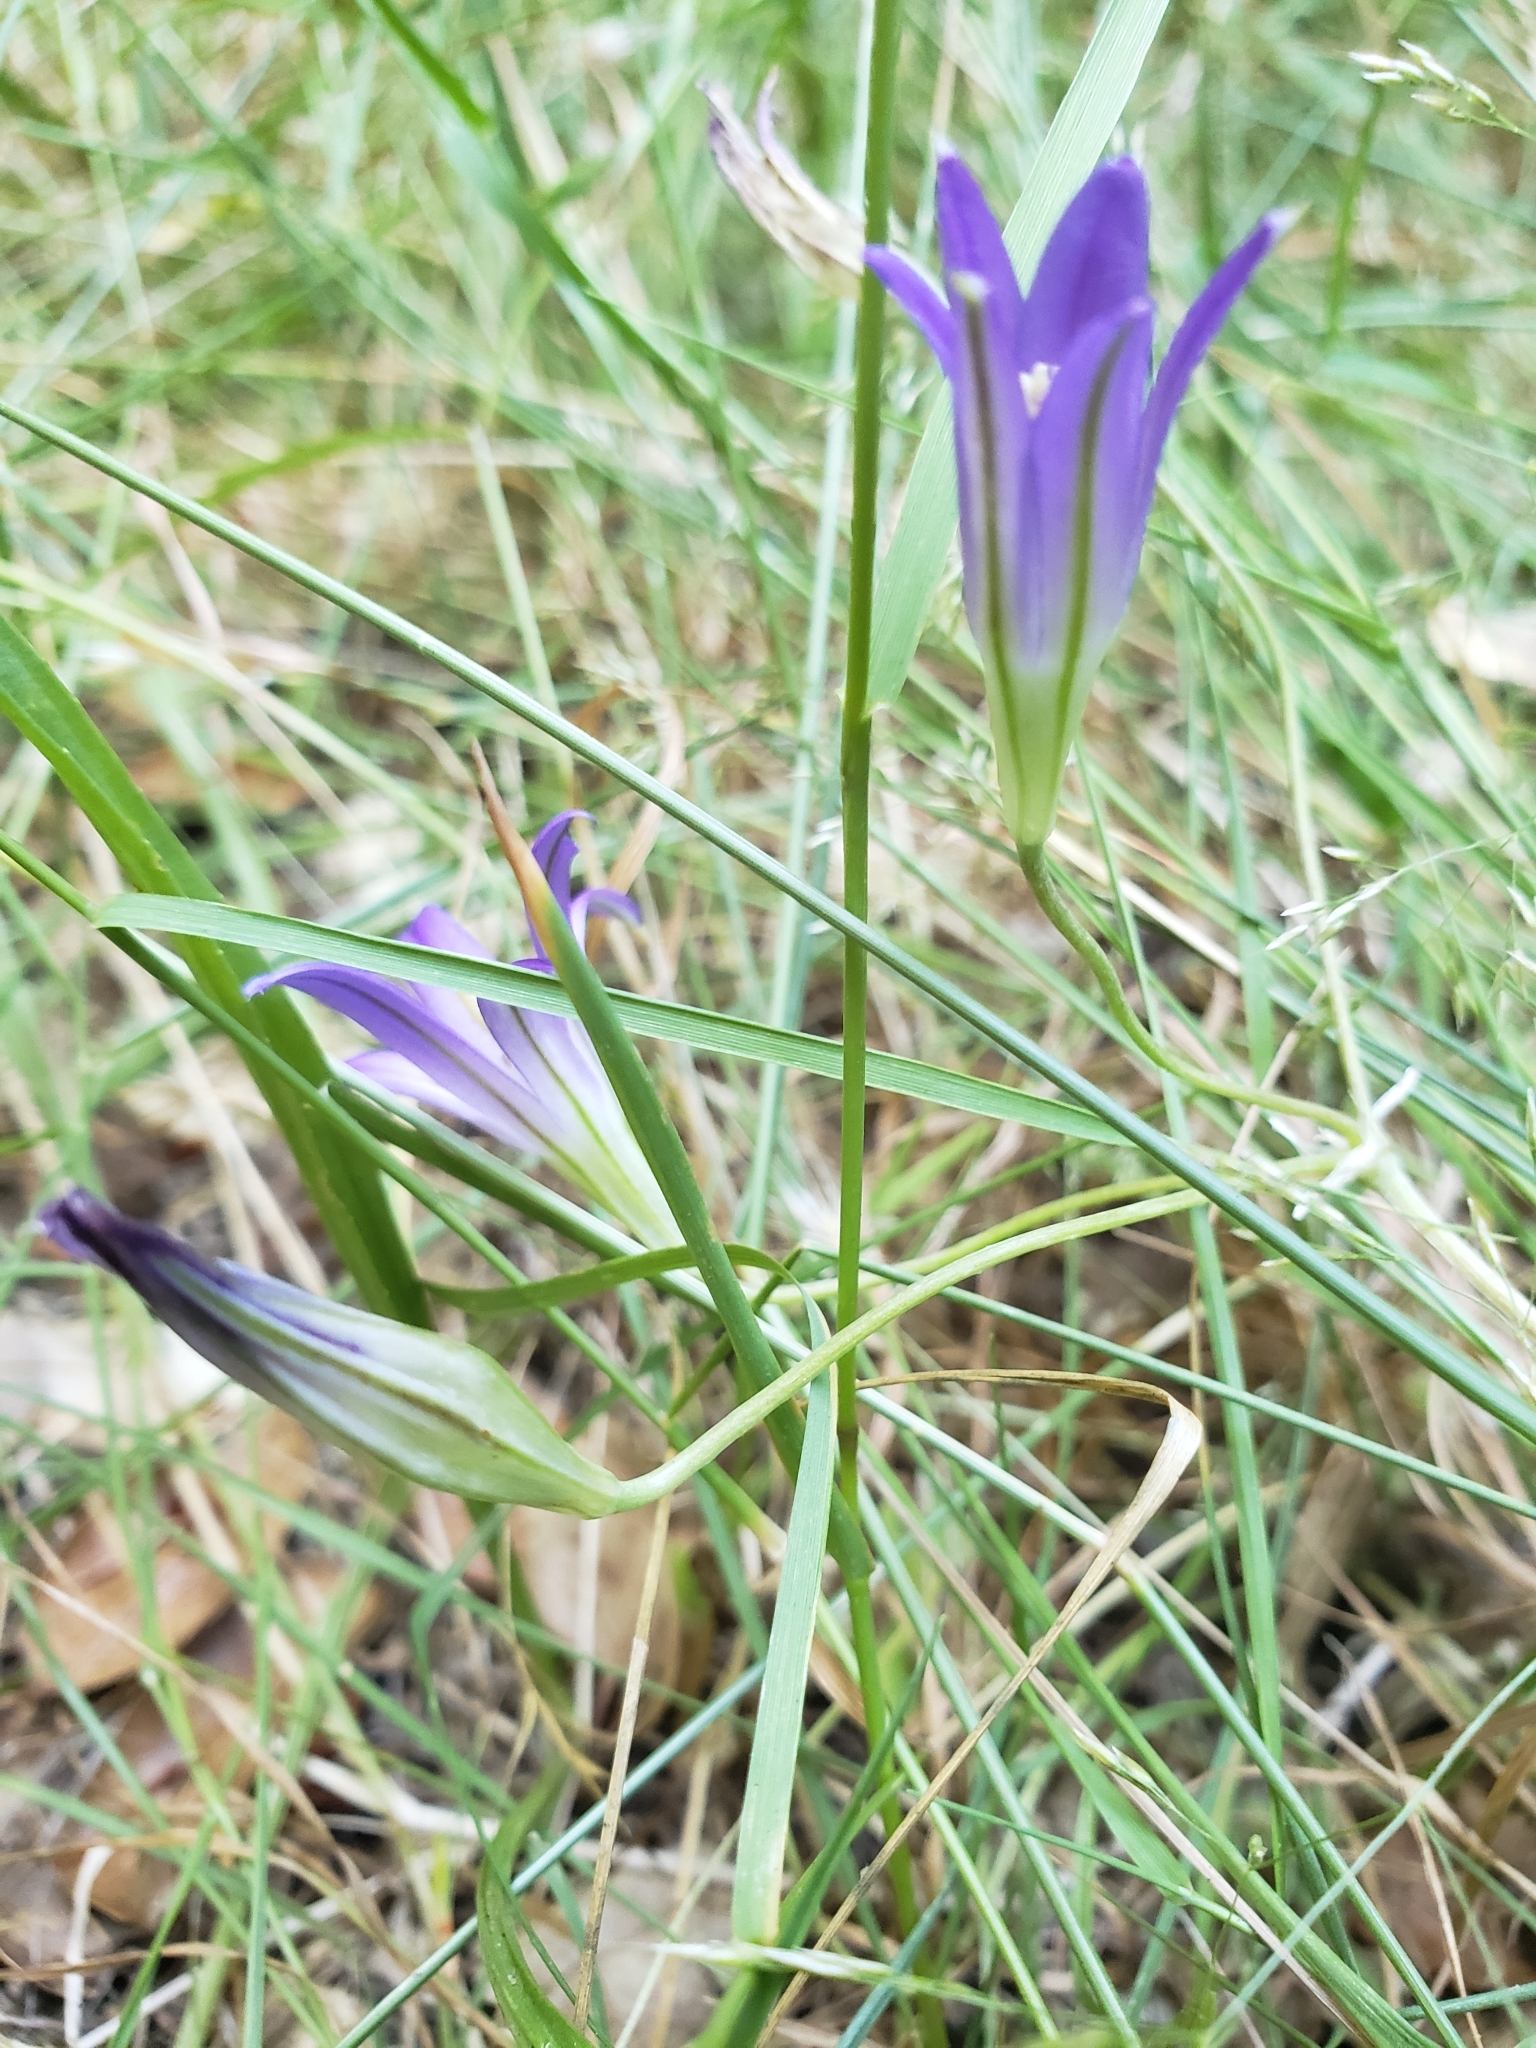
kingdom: Plantae
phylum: Tracheophyta
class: Liliopsida
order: Asparagales
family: Asparagaceae
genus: Brodiaea
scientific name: Brodiaea elegans
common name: Elegant cluster-lily
